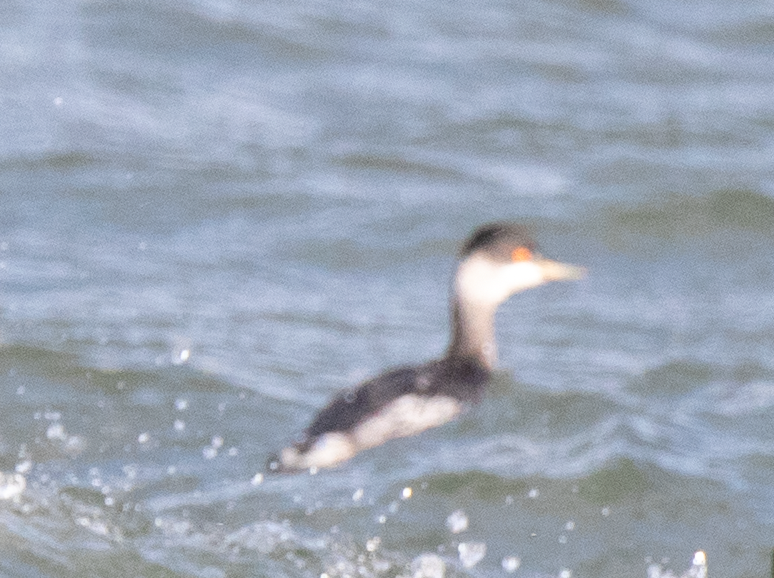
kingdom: Animalia
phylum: Chordata
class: Aves
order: Podicipediformes
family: Podicipedidae
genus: Podiceps
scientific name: Podiceps auritus
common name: Horned grebe
